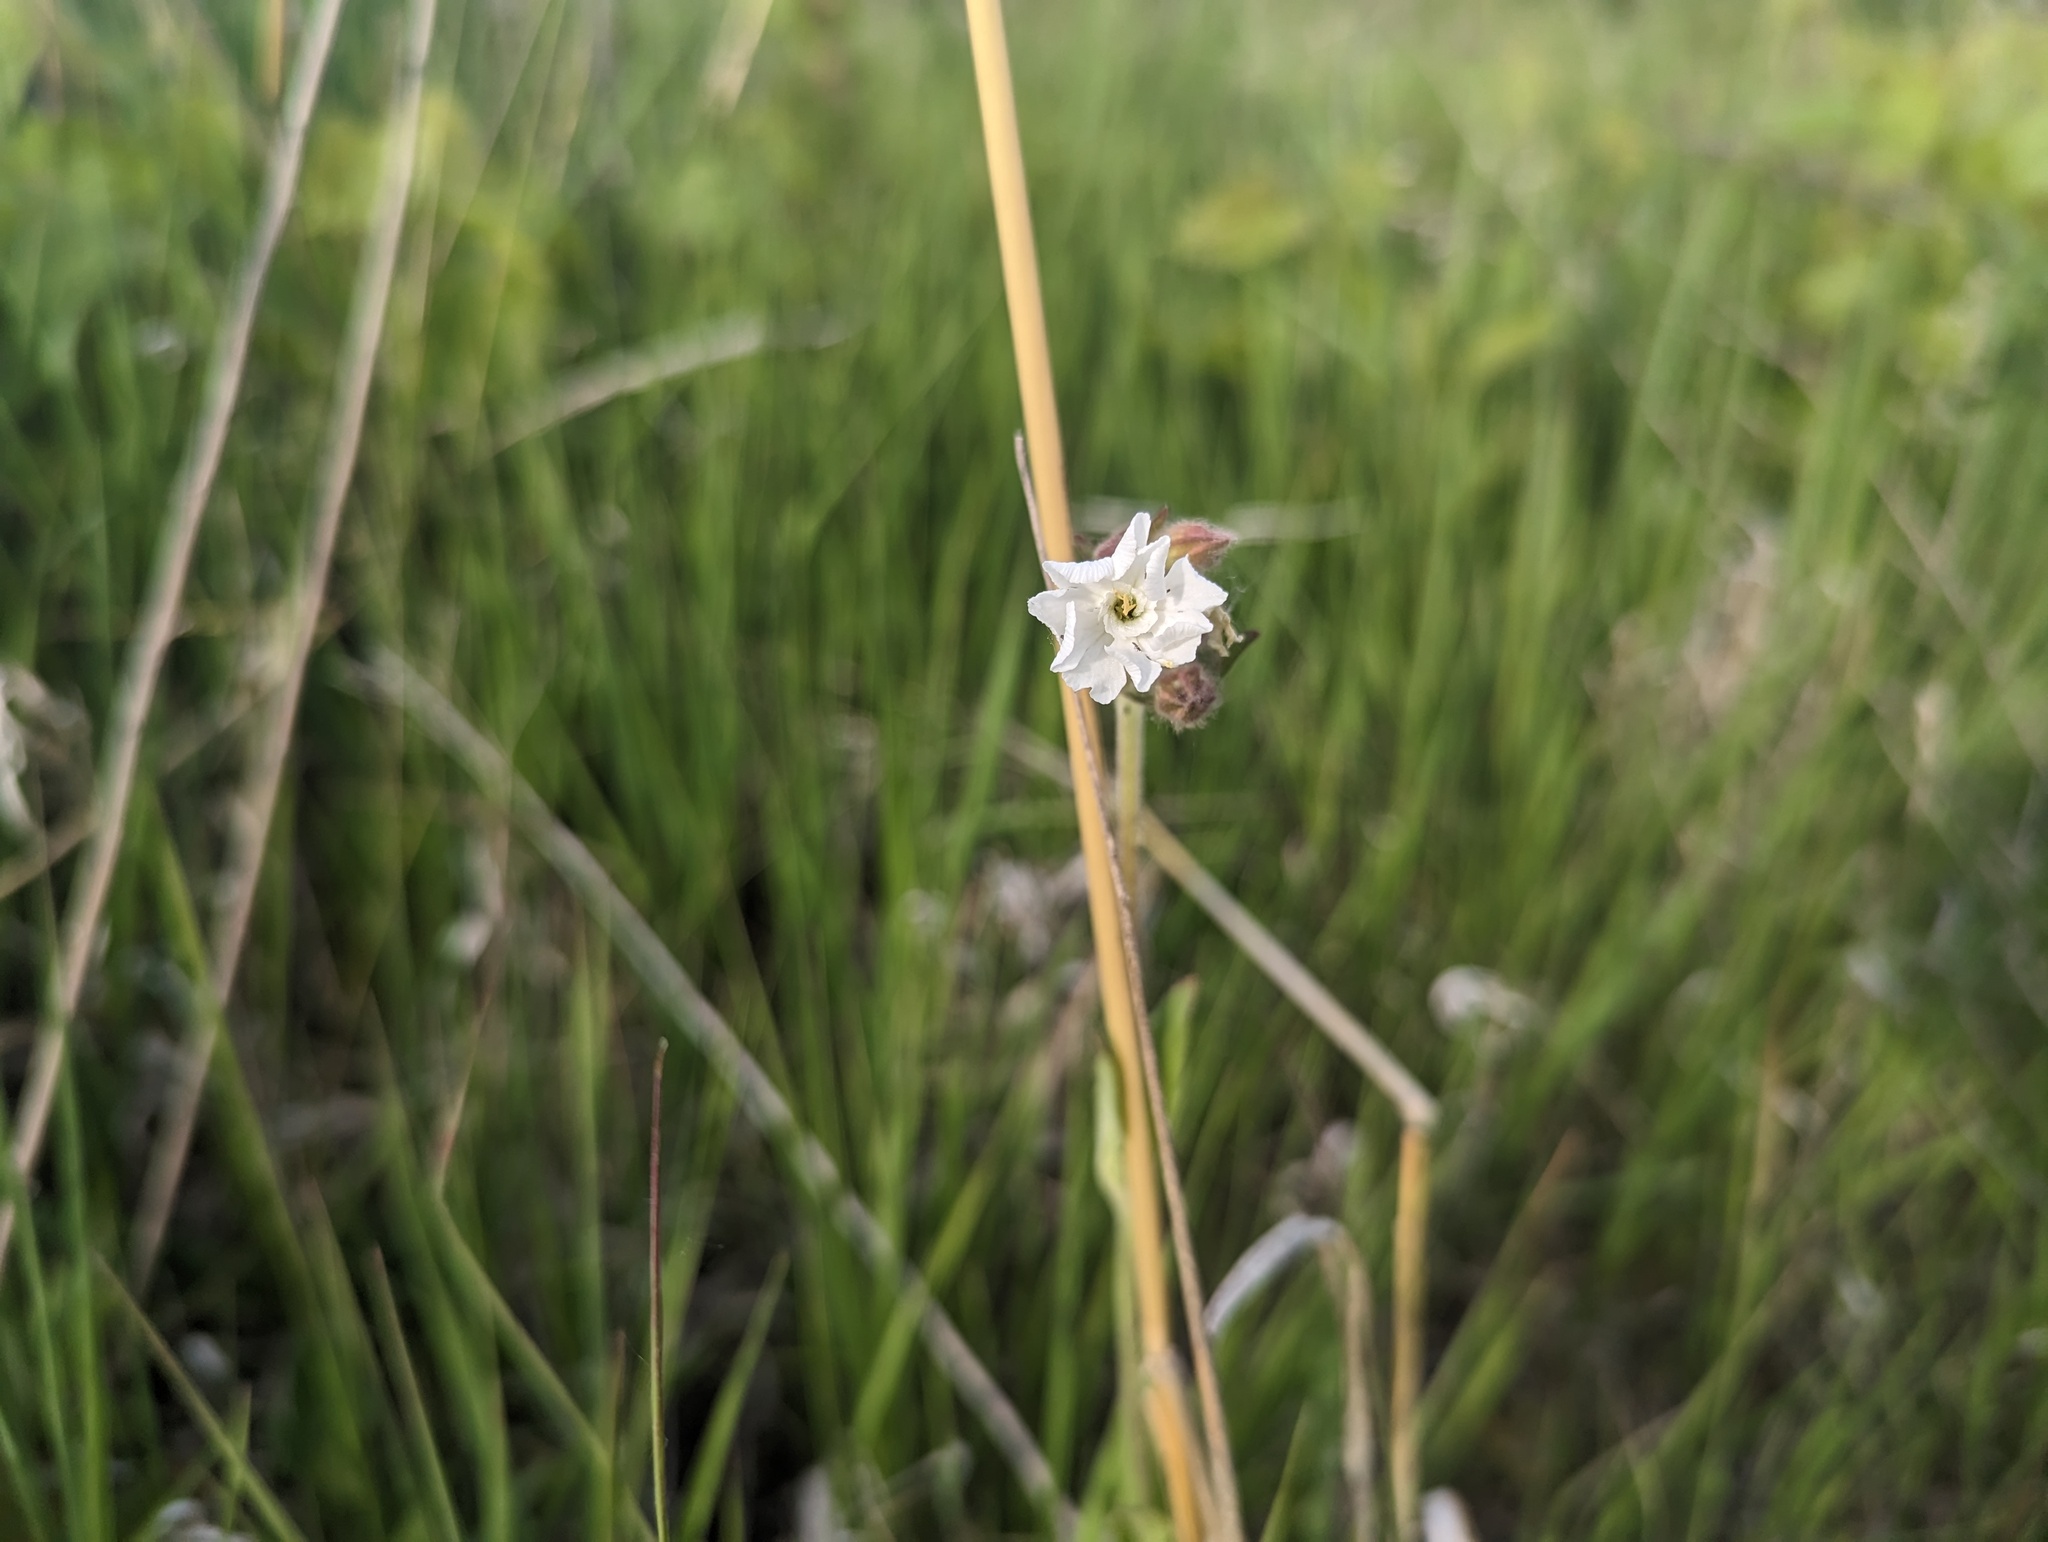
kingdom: Plantae
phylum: Tracheophyta
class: Magnoliopsida
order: Caryophyllales
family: Caryophyllaceae
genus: Silene
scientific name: Silene latifolia
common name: White campion
